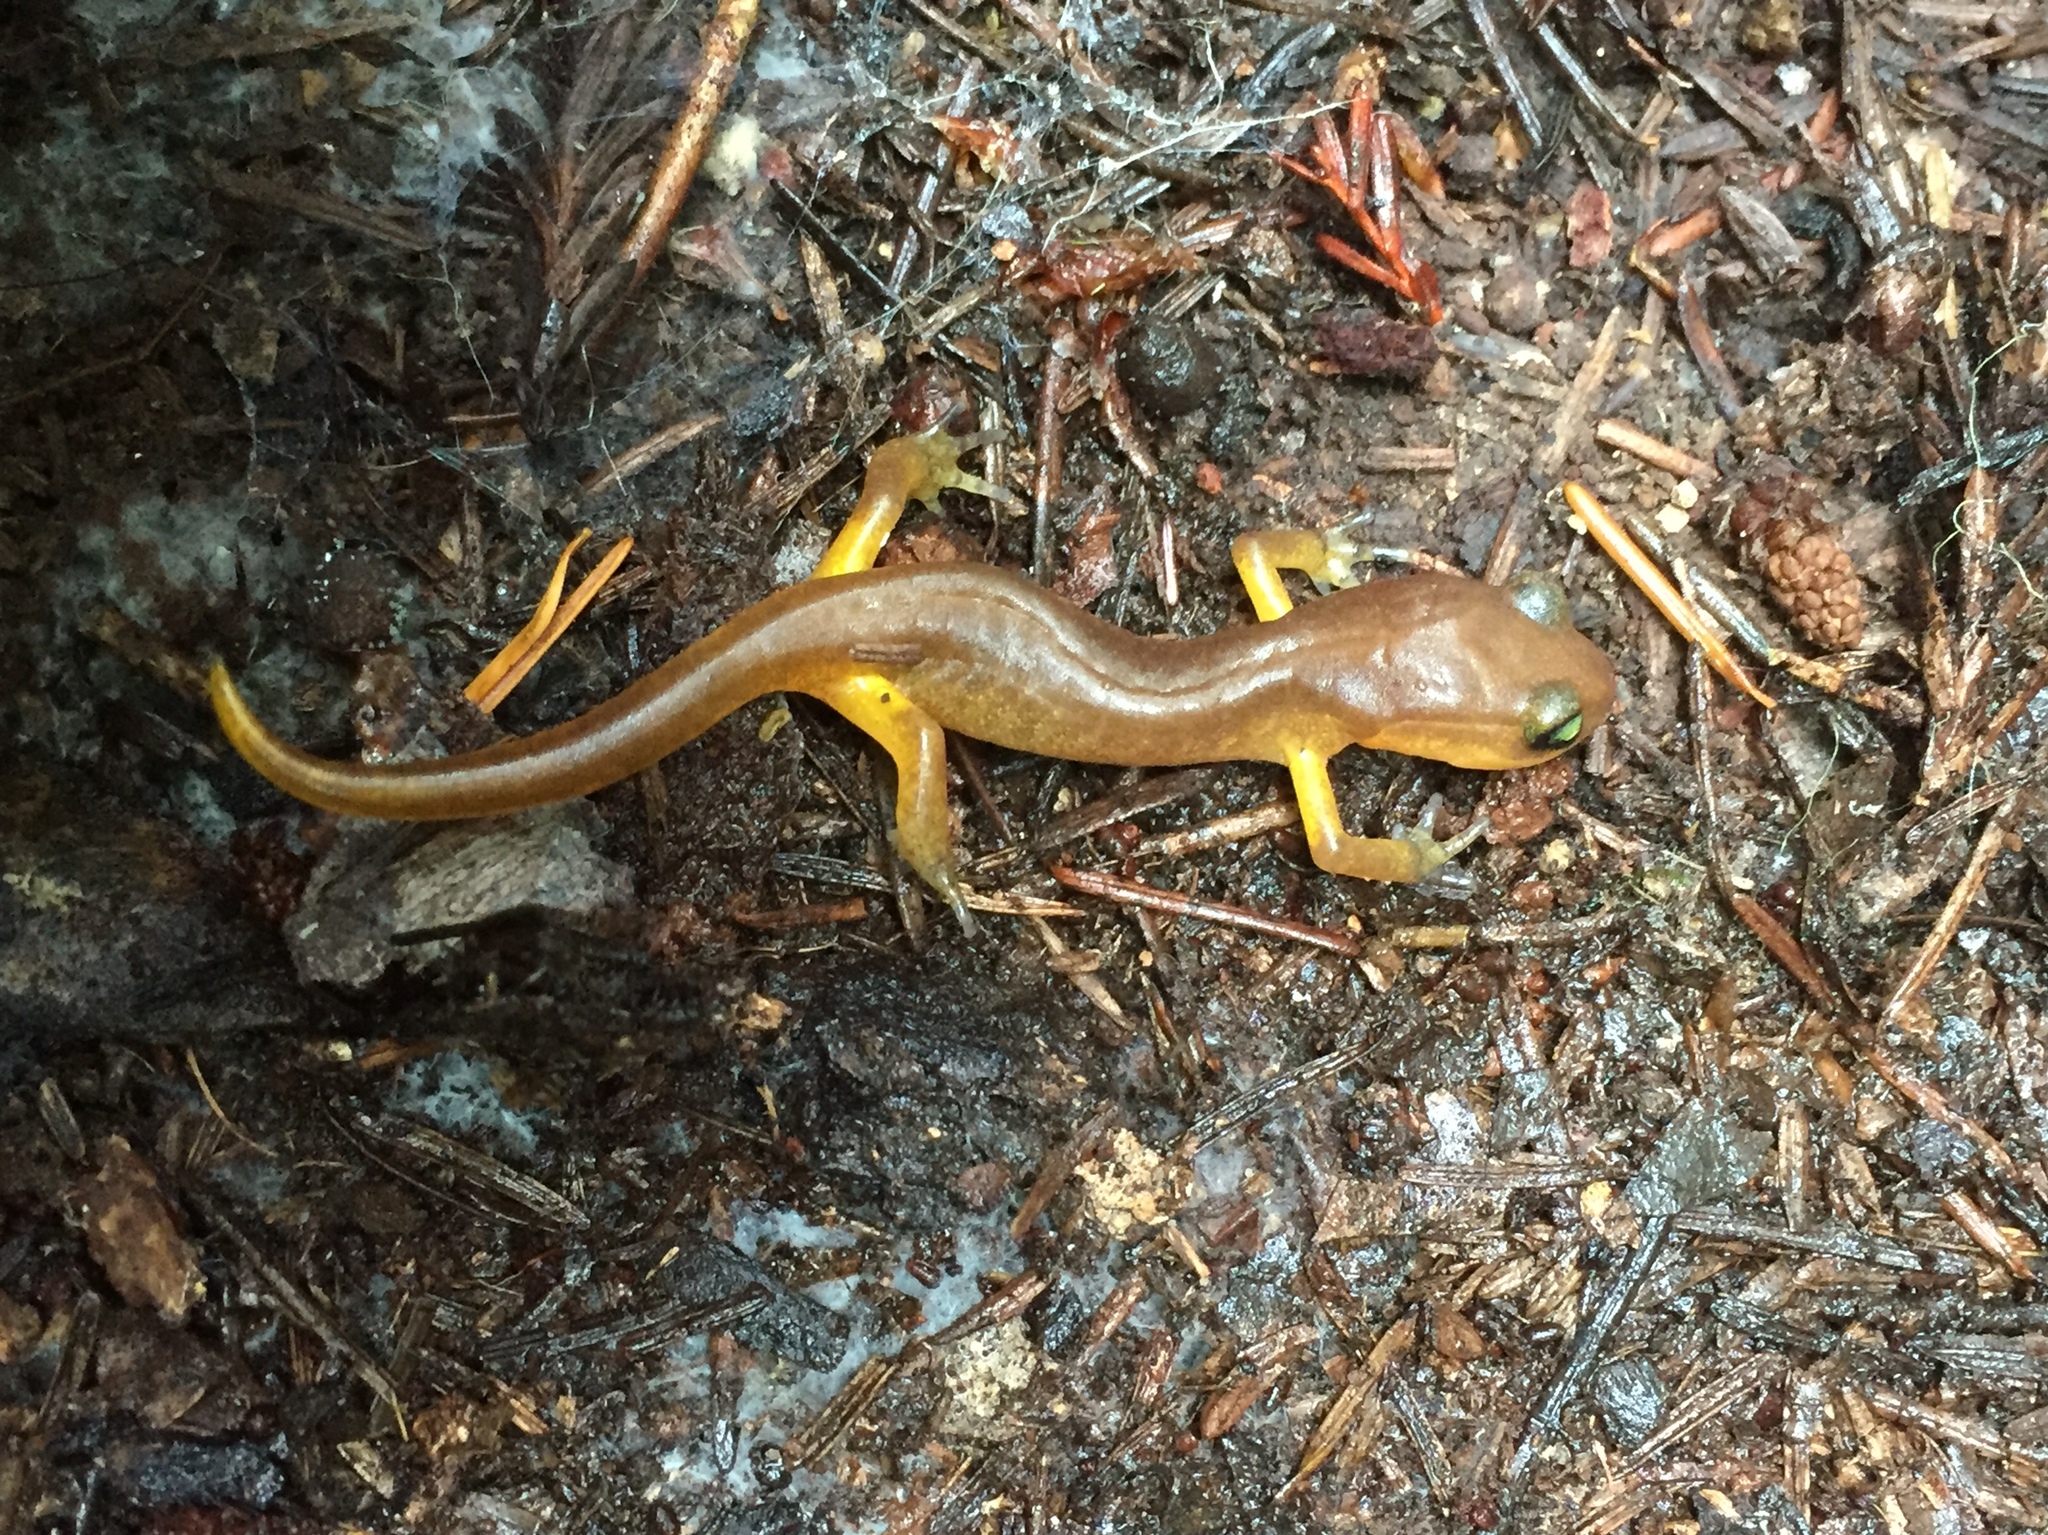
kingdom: Animalia
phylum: Chordata
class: Amphibia
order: Caudata
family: Plethodontidae
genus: Ensatina
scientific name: Ensatina eschscholtzii
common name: Ensatina
